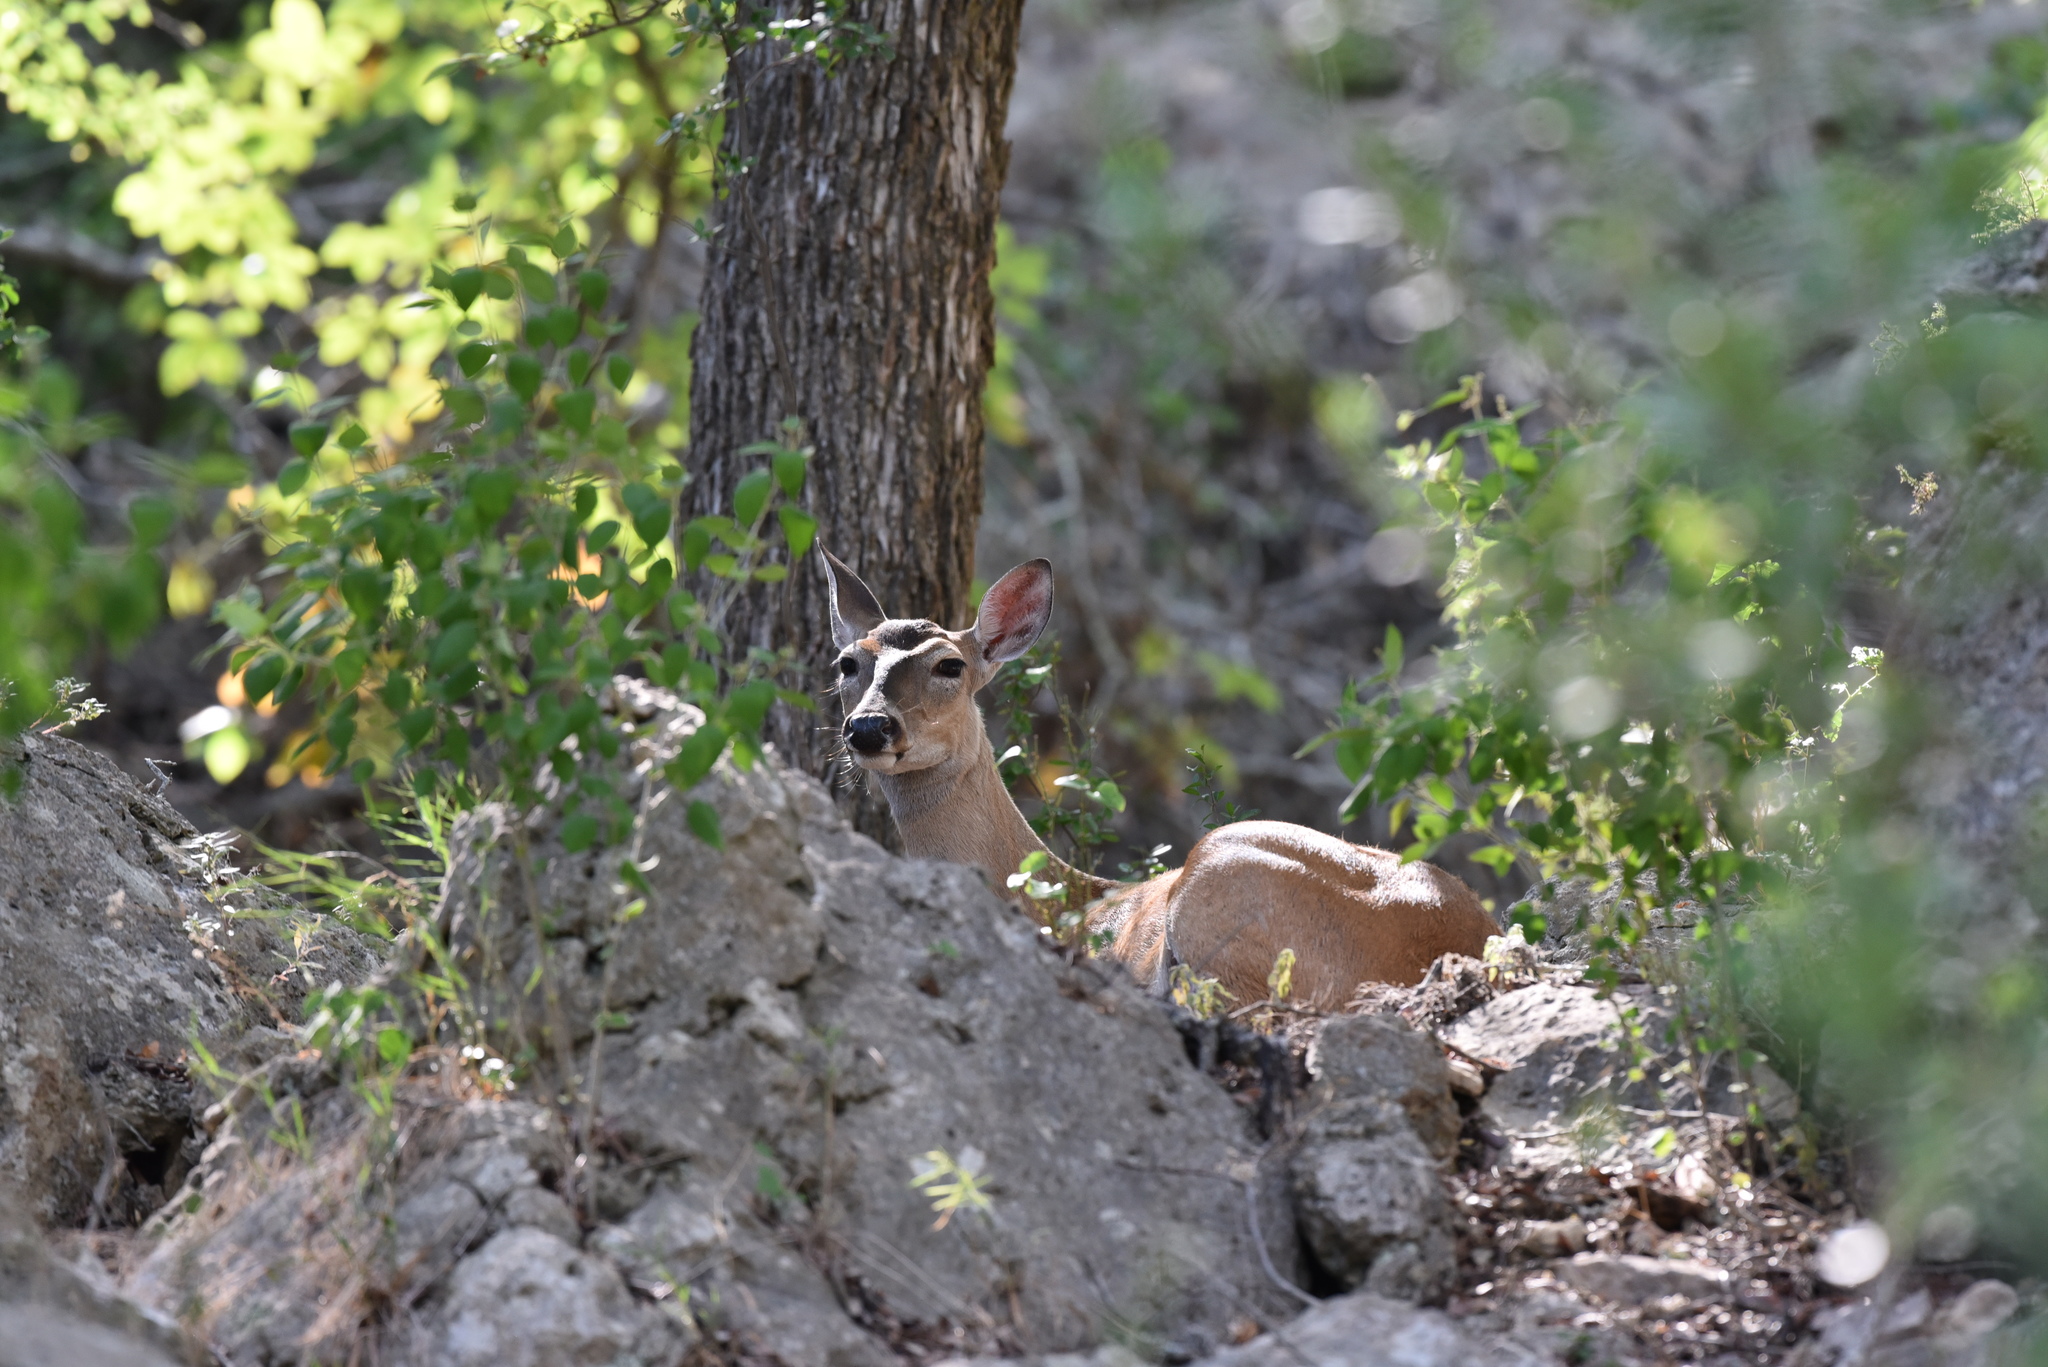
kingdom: Animalia
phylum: Chordata
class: Mammalia
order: Artiodactyla
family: Cervidae
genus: Odocoileus
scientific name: Odocoileus virginianus
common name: White-tailed deer
